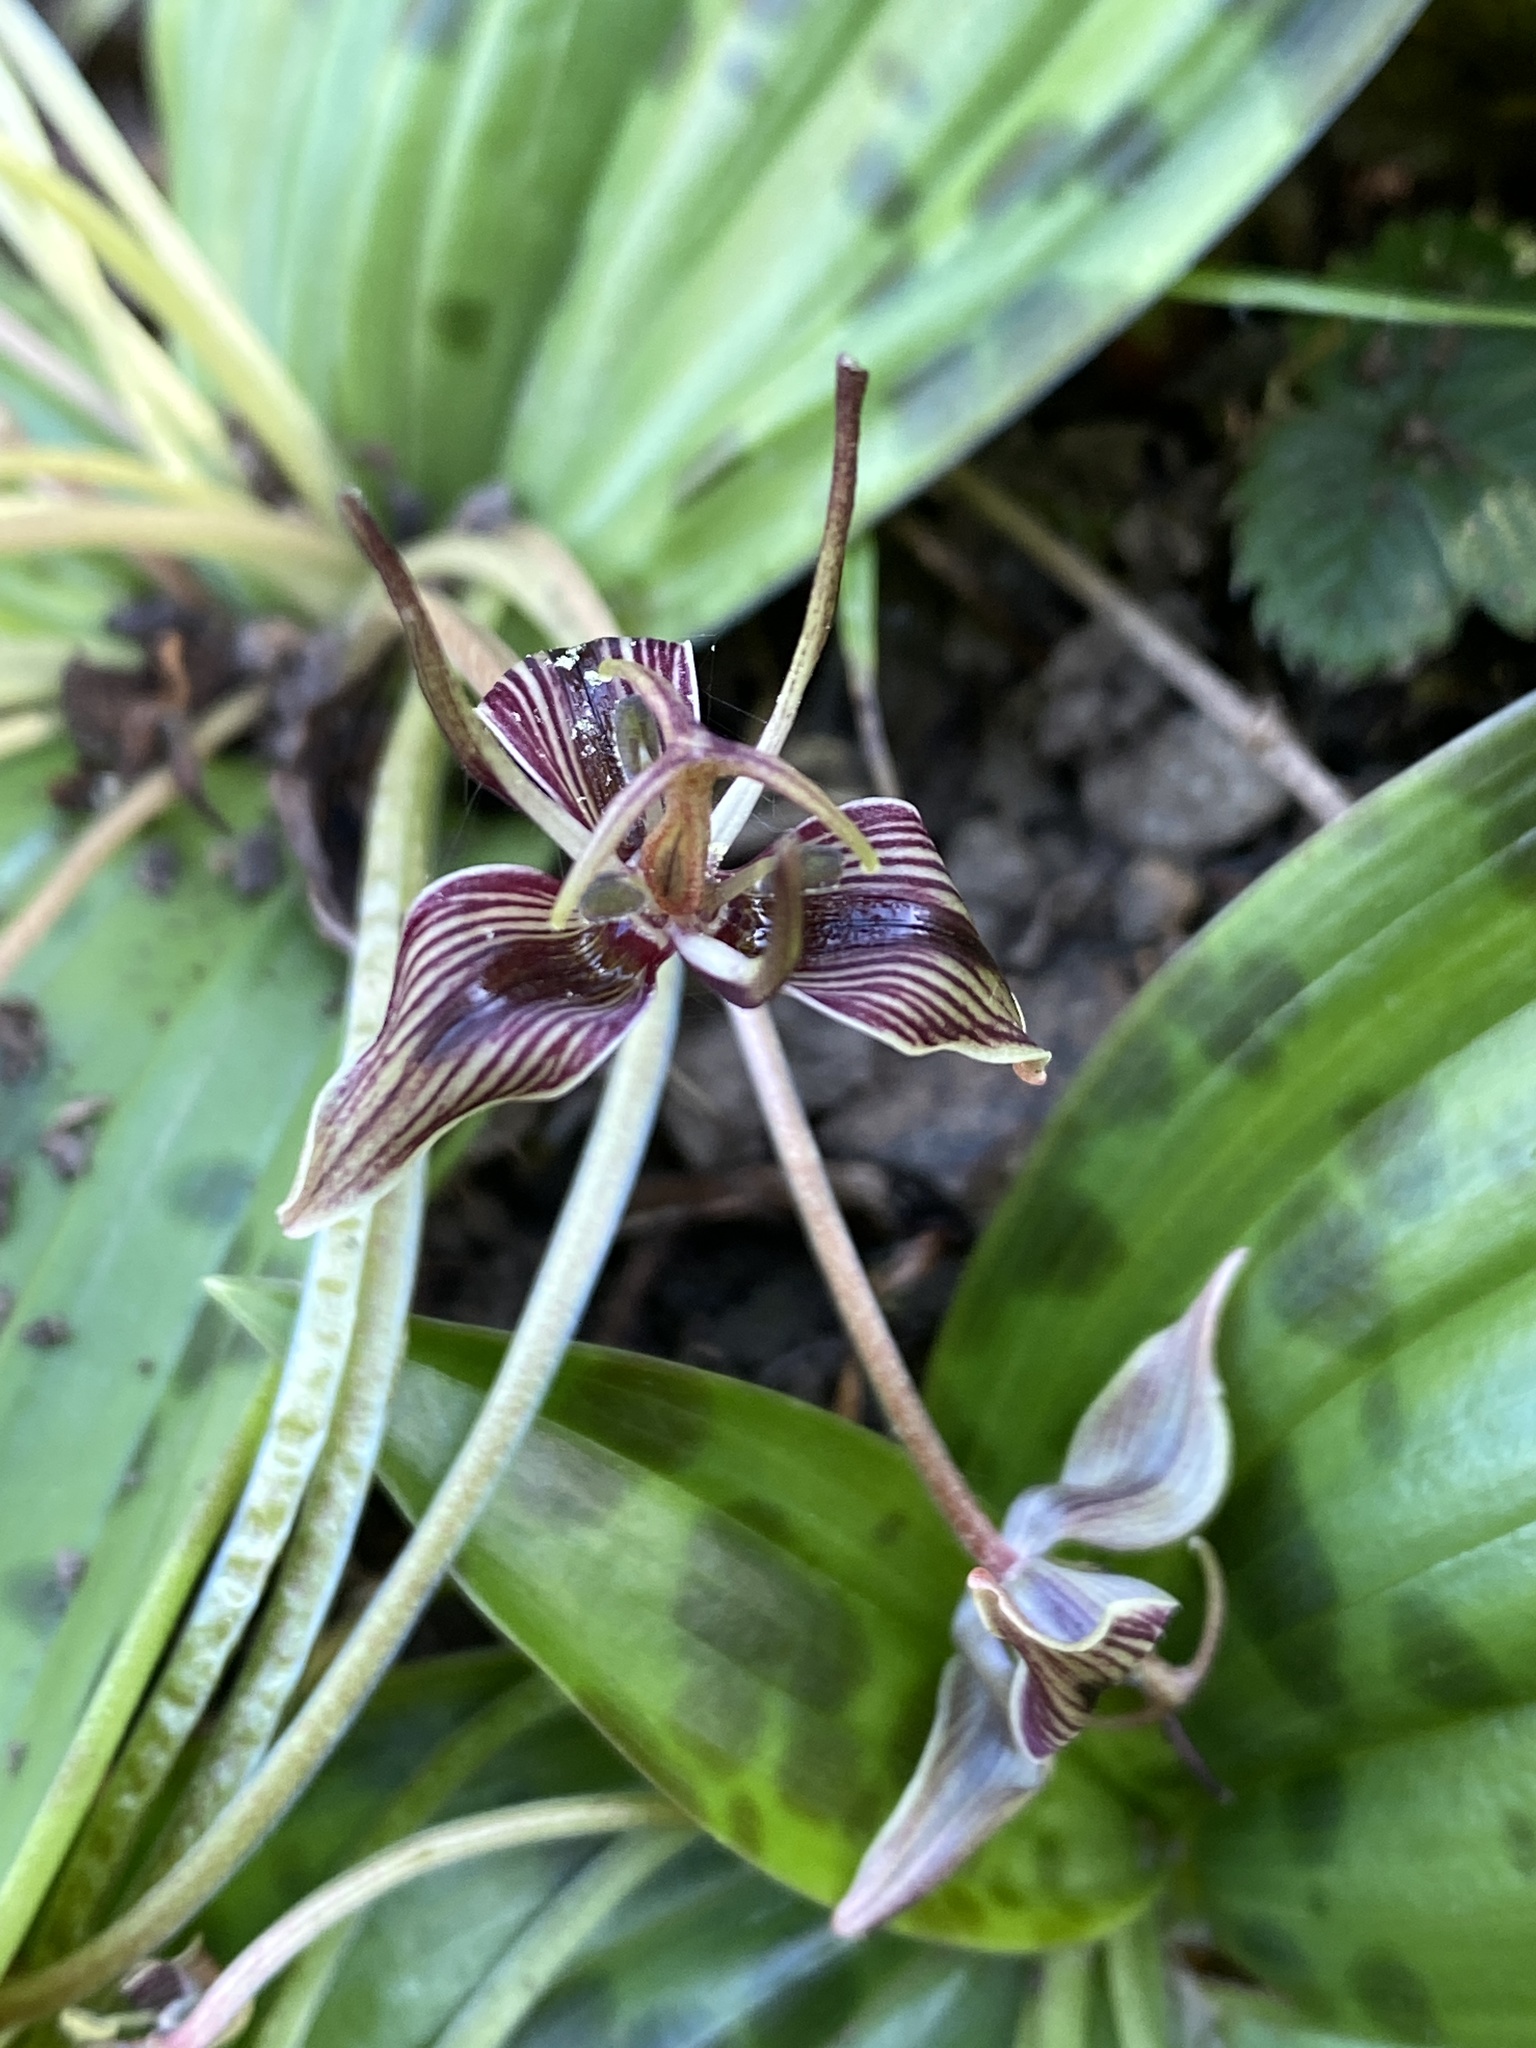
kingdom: Plantae
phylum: Tracheophyta
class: Liliopsida
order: Liliales
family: Liliaceae
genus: Scoliopus
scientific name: Scoliopus bigelovii
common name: Foetid adder's-tongue
